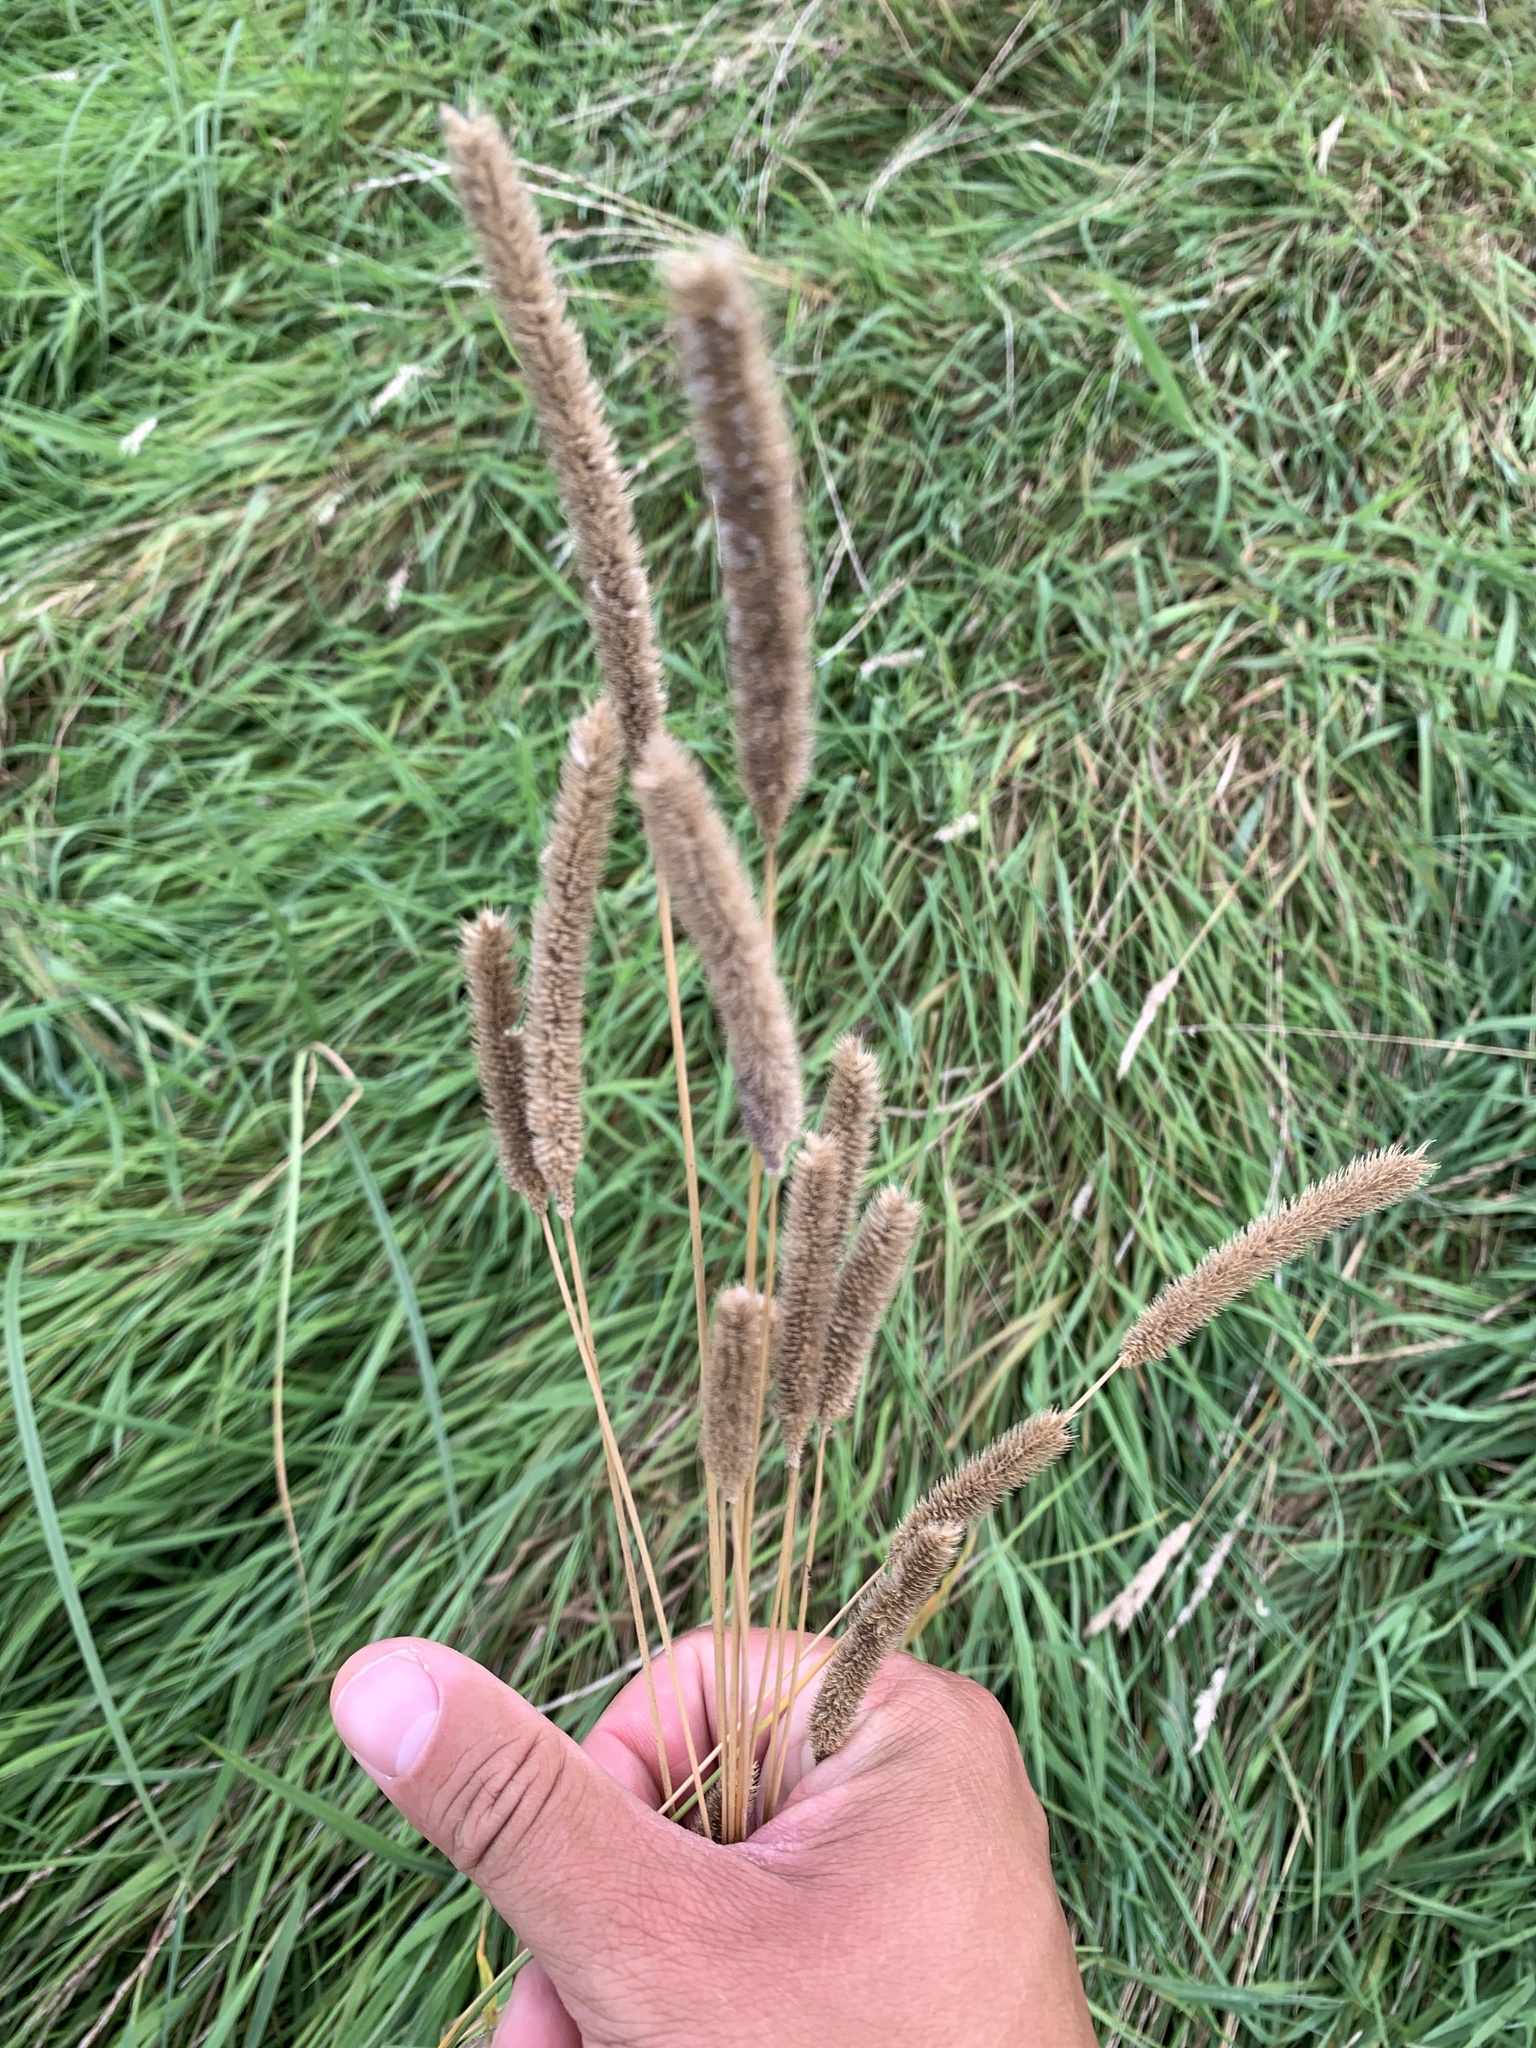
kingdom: Plantae
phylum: Tracheophyta
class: Liliopsida
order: Poales
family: Poaceae
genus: Phleum
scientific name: Phleum pratense
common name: Timothy grass
